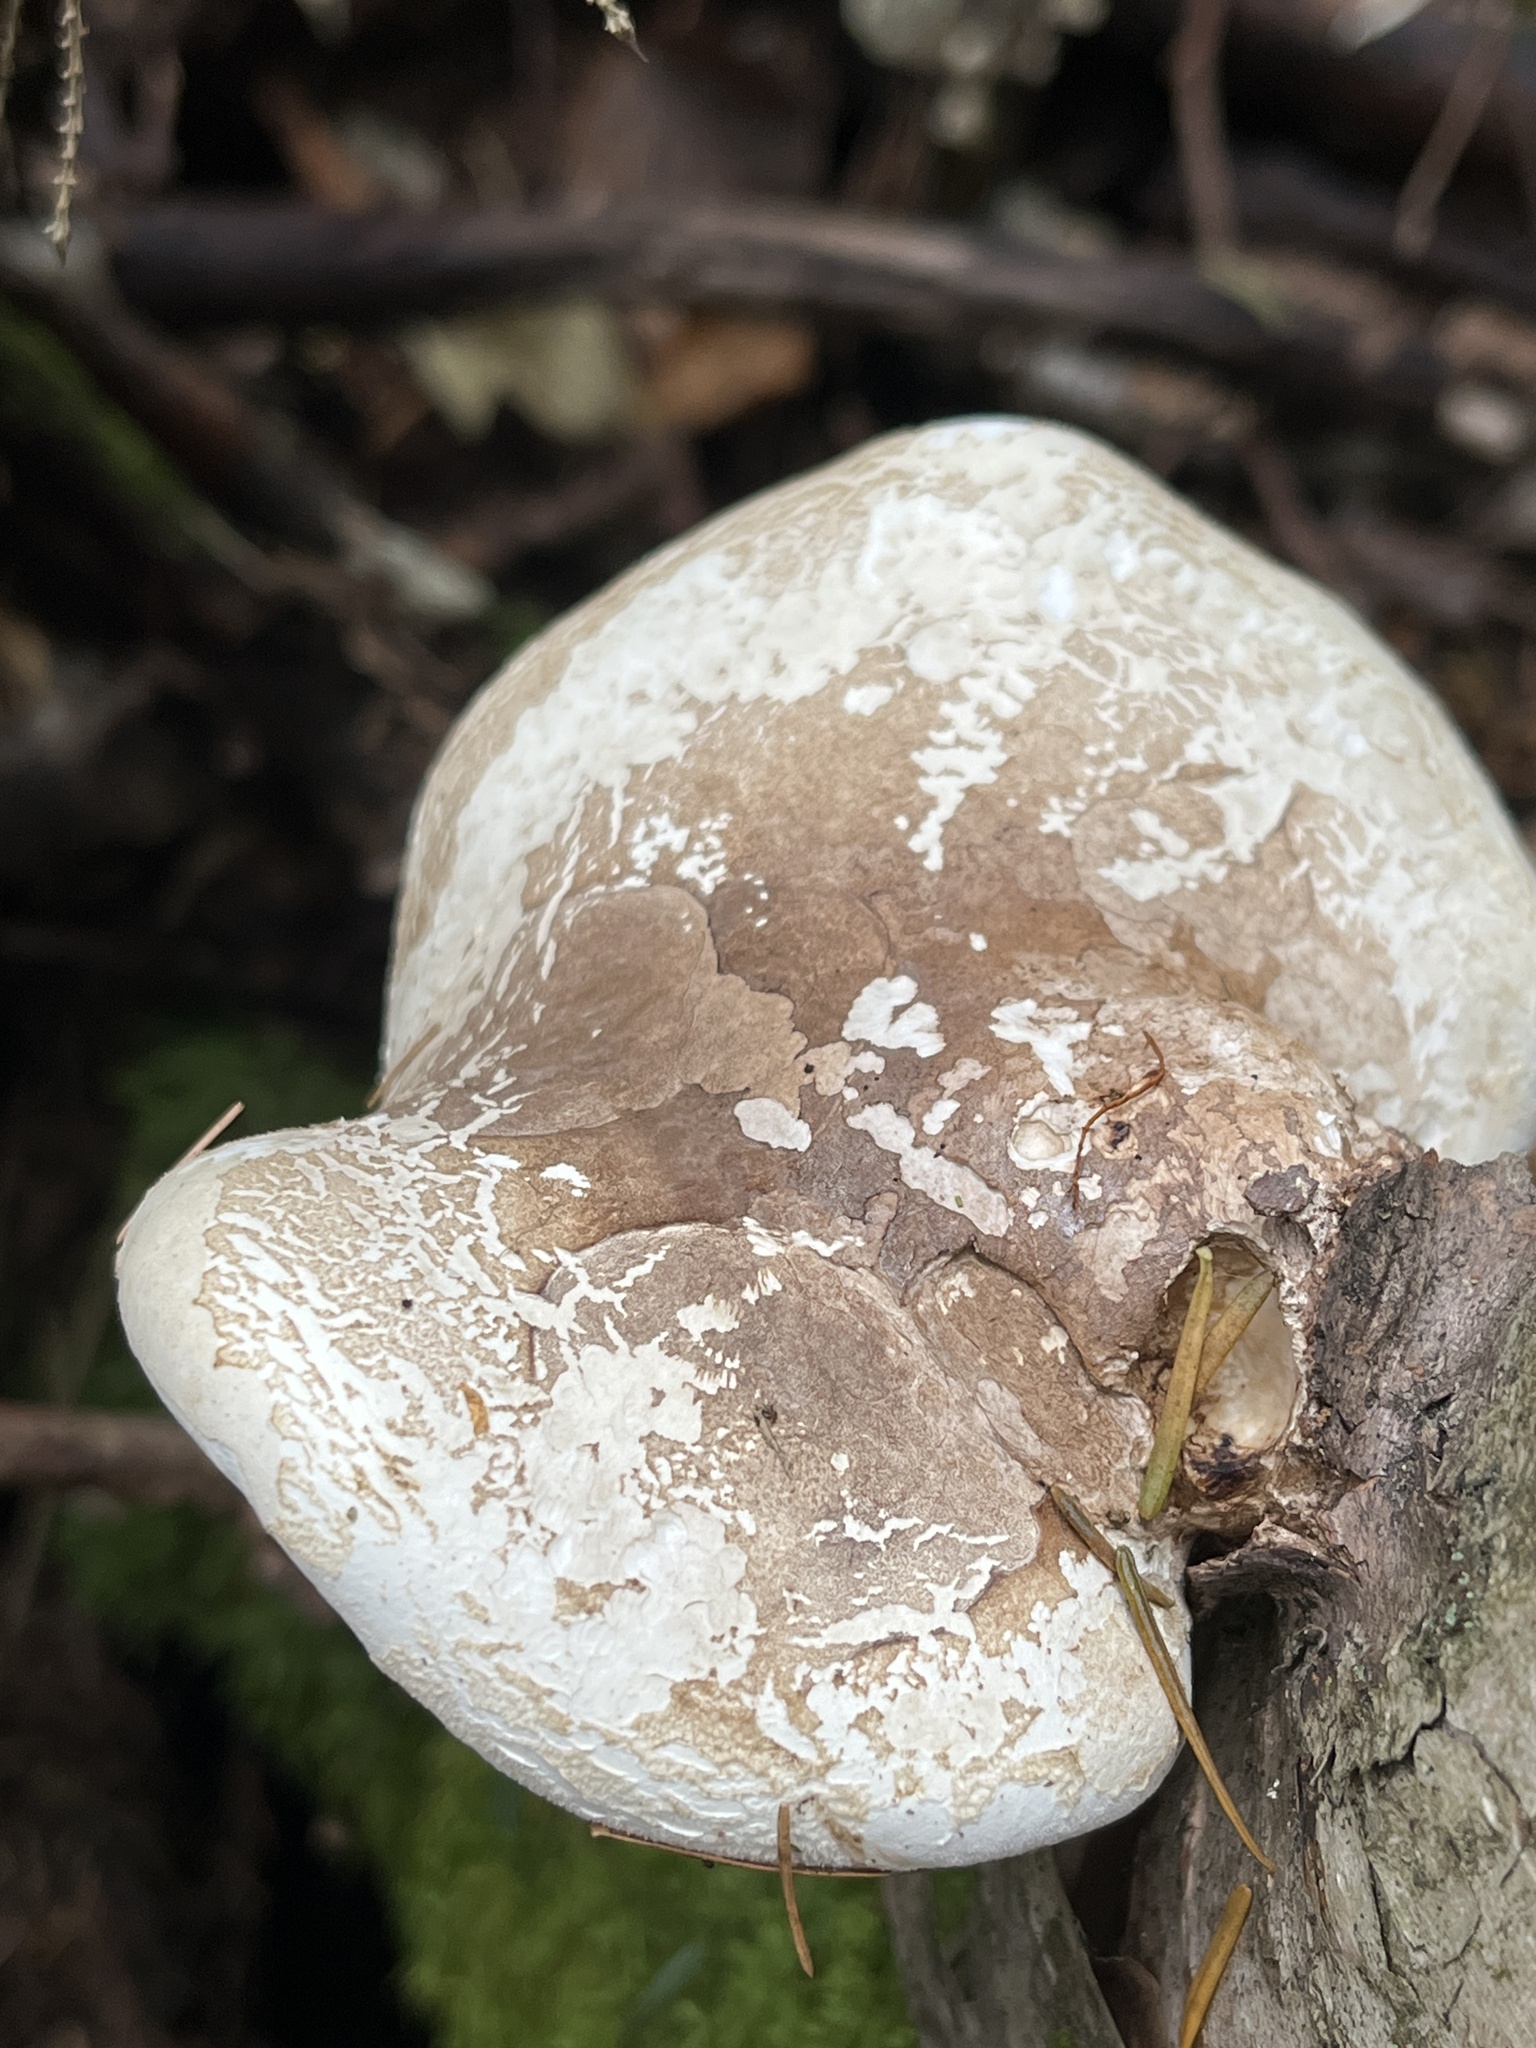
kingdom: Fungi
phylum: Basidiomycota
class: Agaricomycetes
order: Polyporales
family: Fomitopsidaceae
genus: Fomitopsis
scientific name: Fomitopsis betulina
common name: Birch polypore
